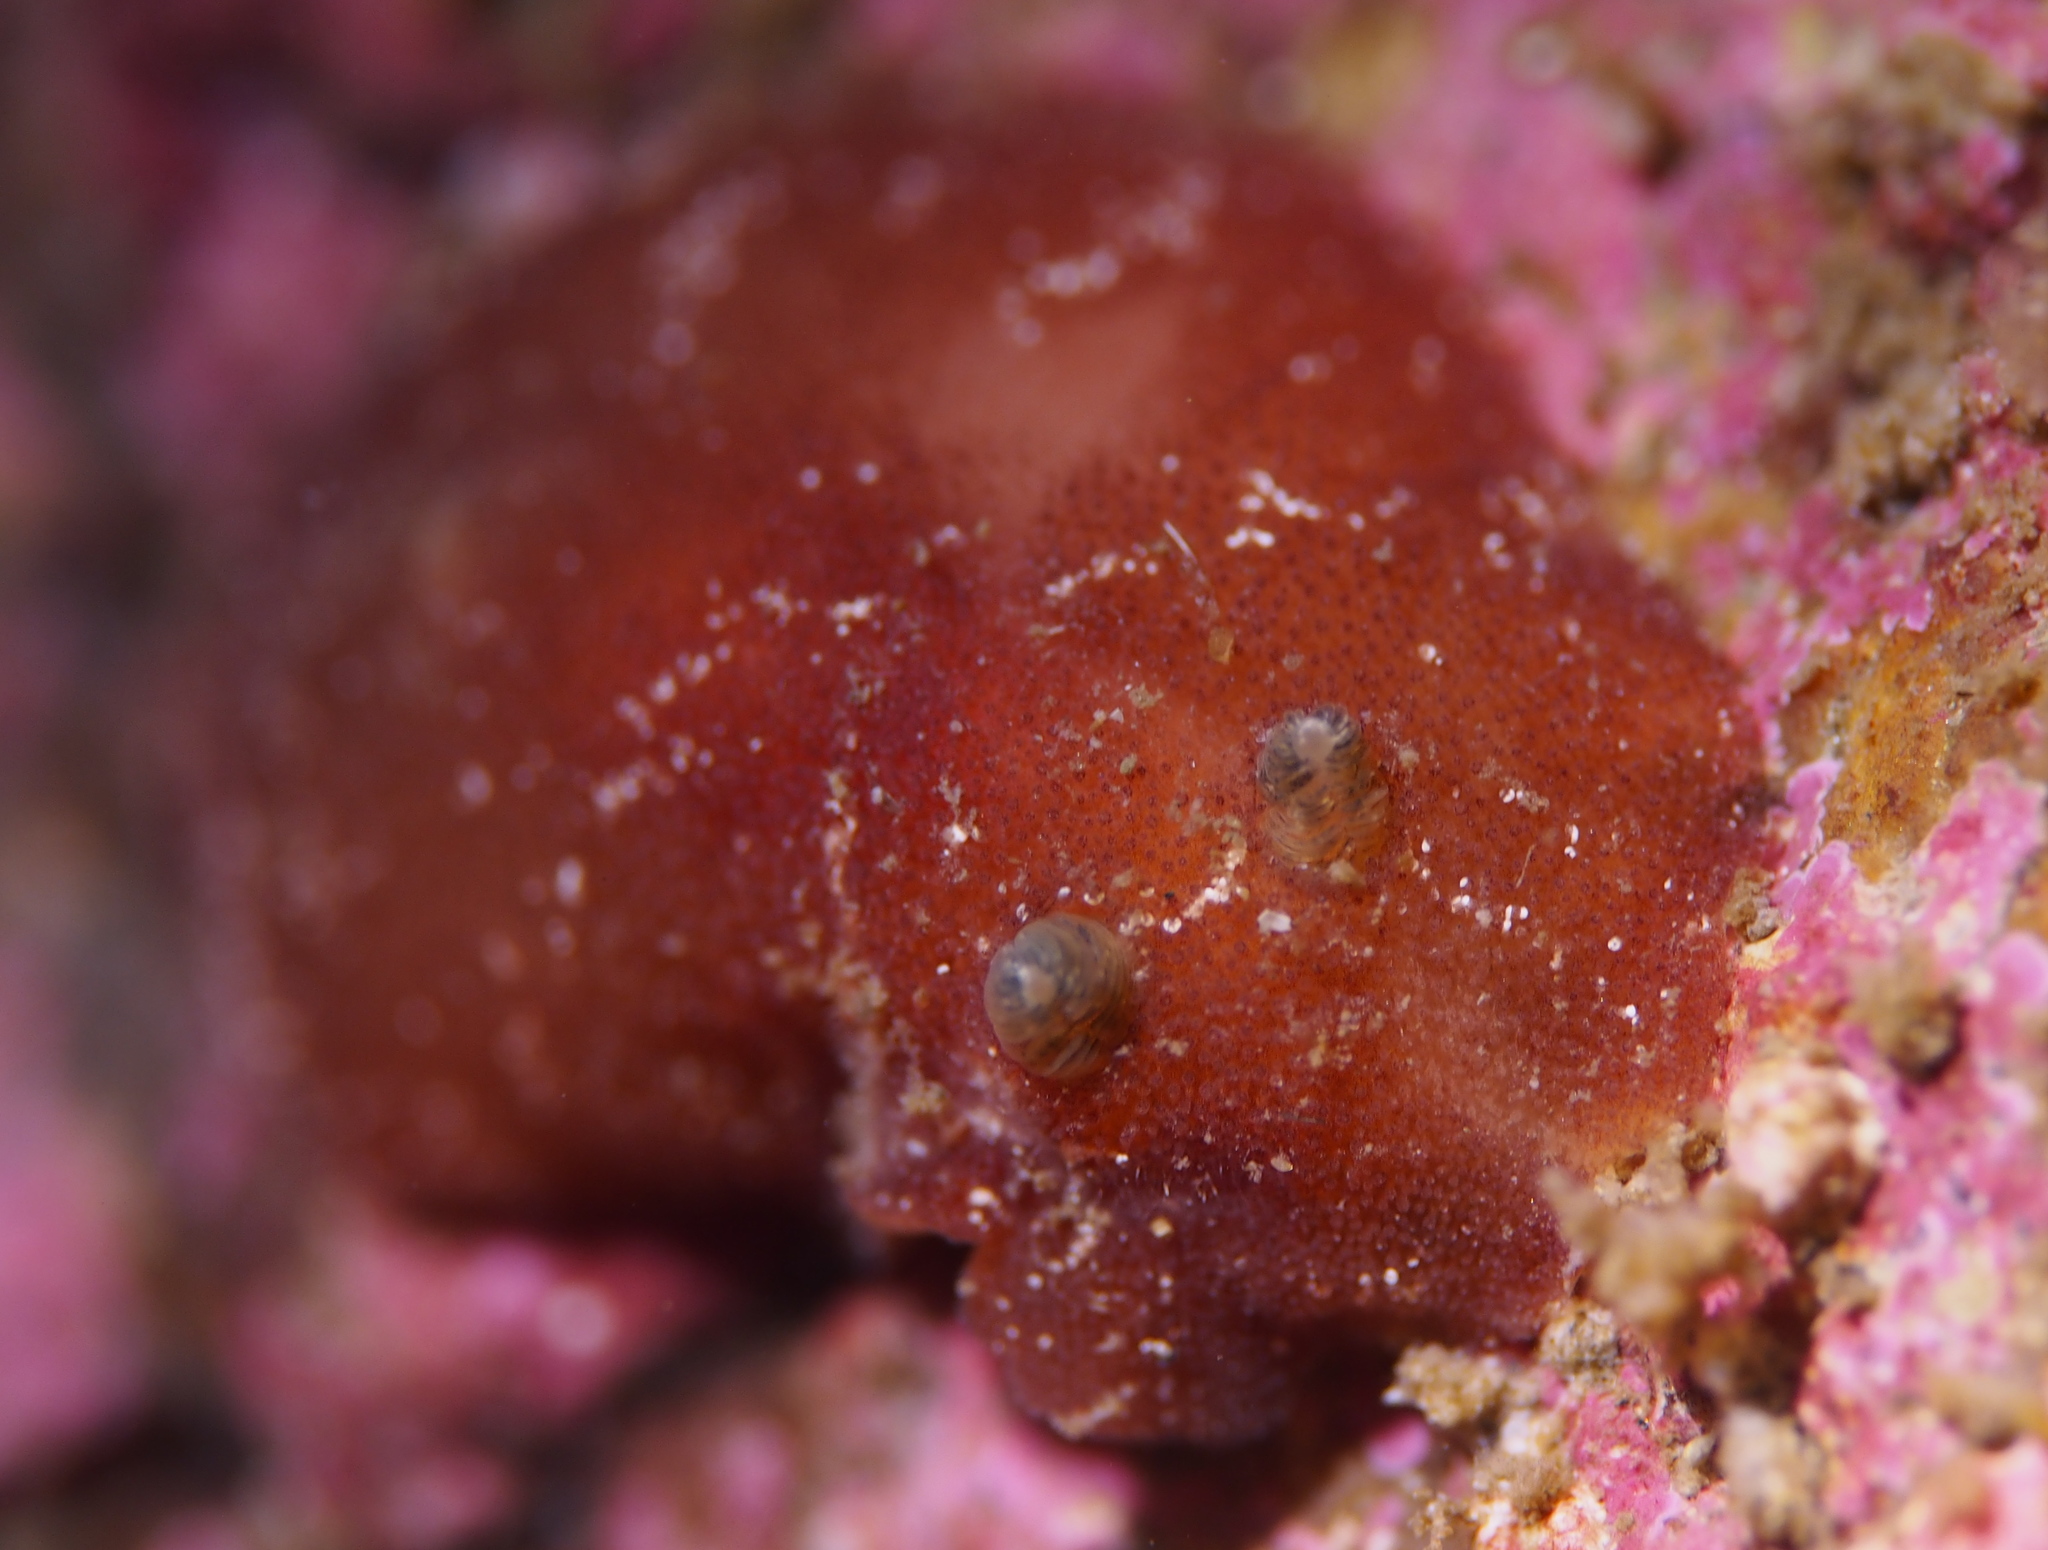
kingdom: Animalia
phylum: Mollusca
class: Gastropoda
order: Nudibranchia
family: Discodorididae
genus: Rostanga
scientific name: Rostanga rubra
